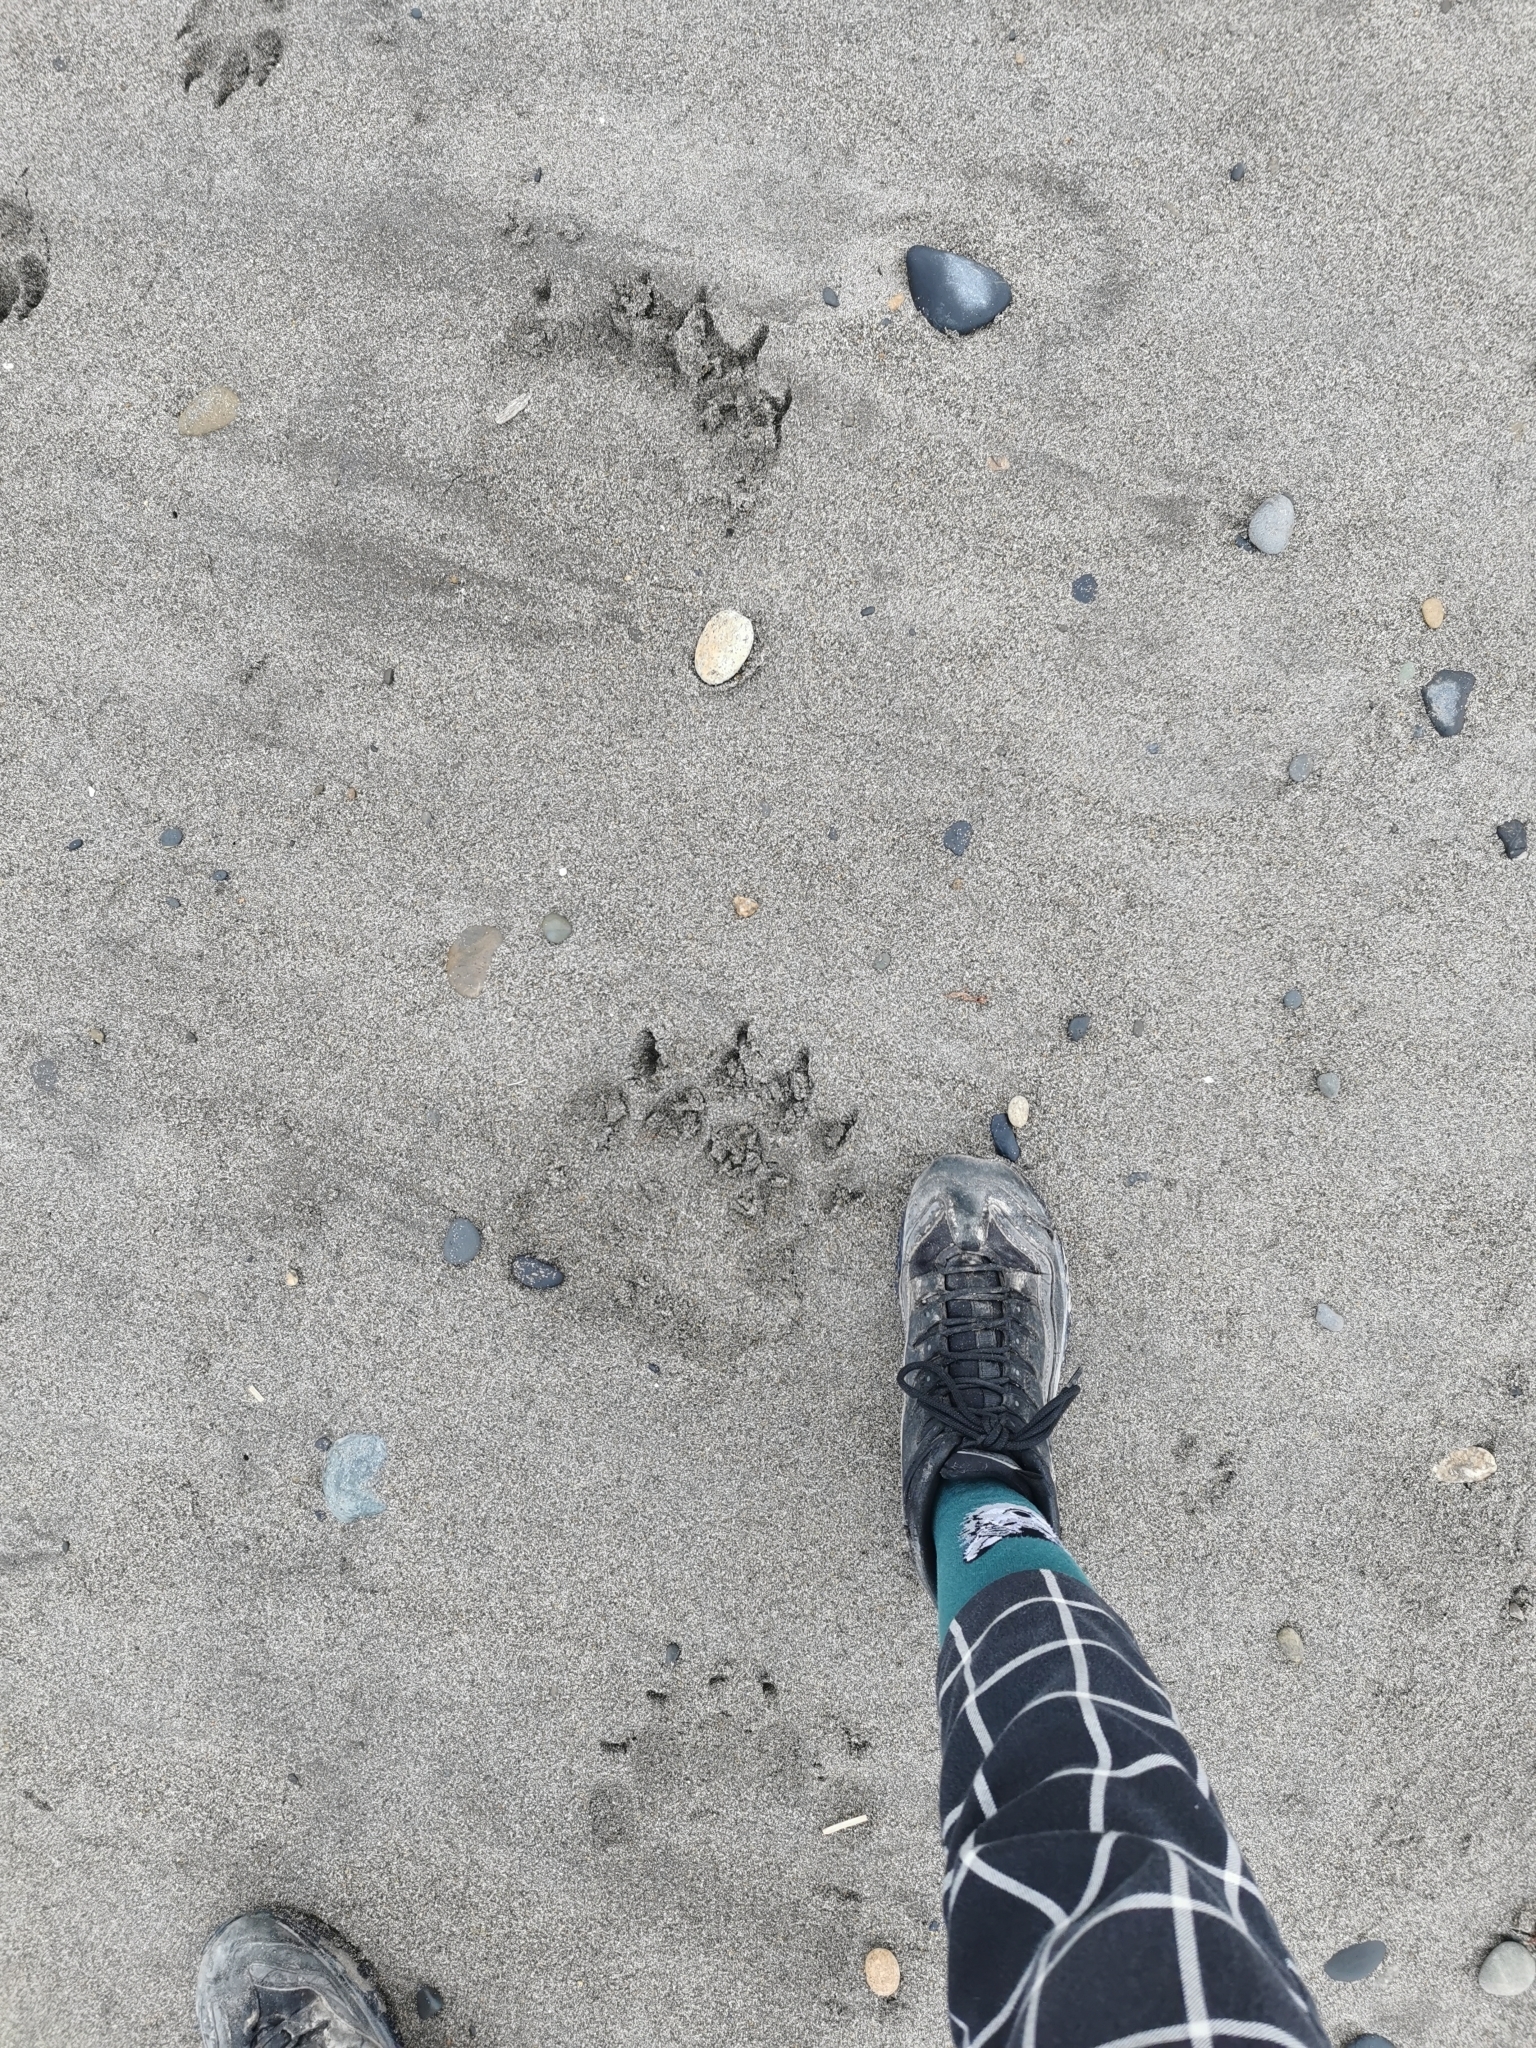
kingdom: Animalia
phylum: Chordata
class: Mammalia
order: Carnivora
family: Ursidae
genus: Ursus
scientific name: Ursus arctos
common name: Brown bear
